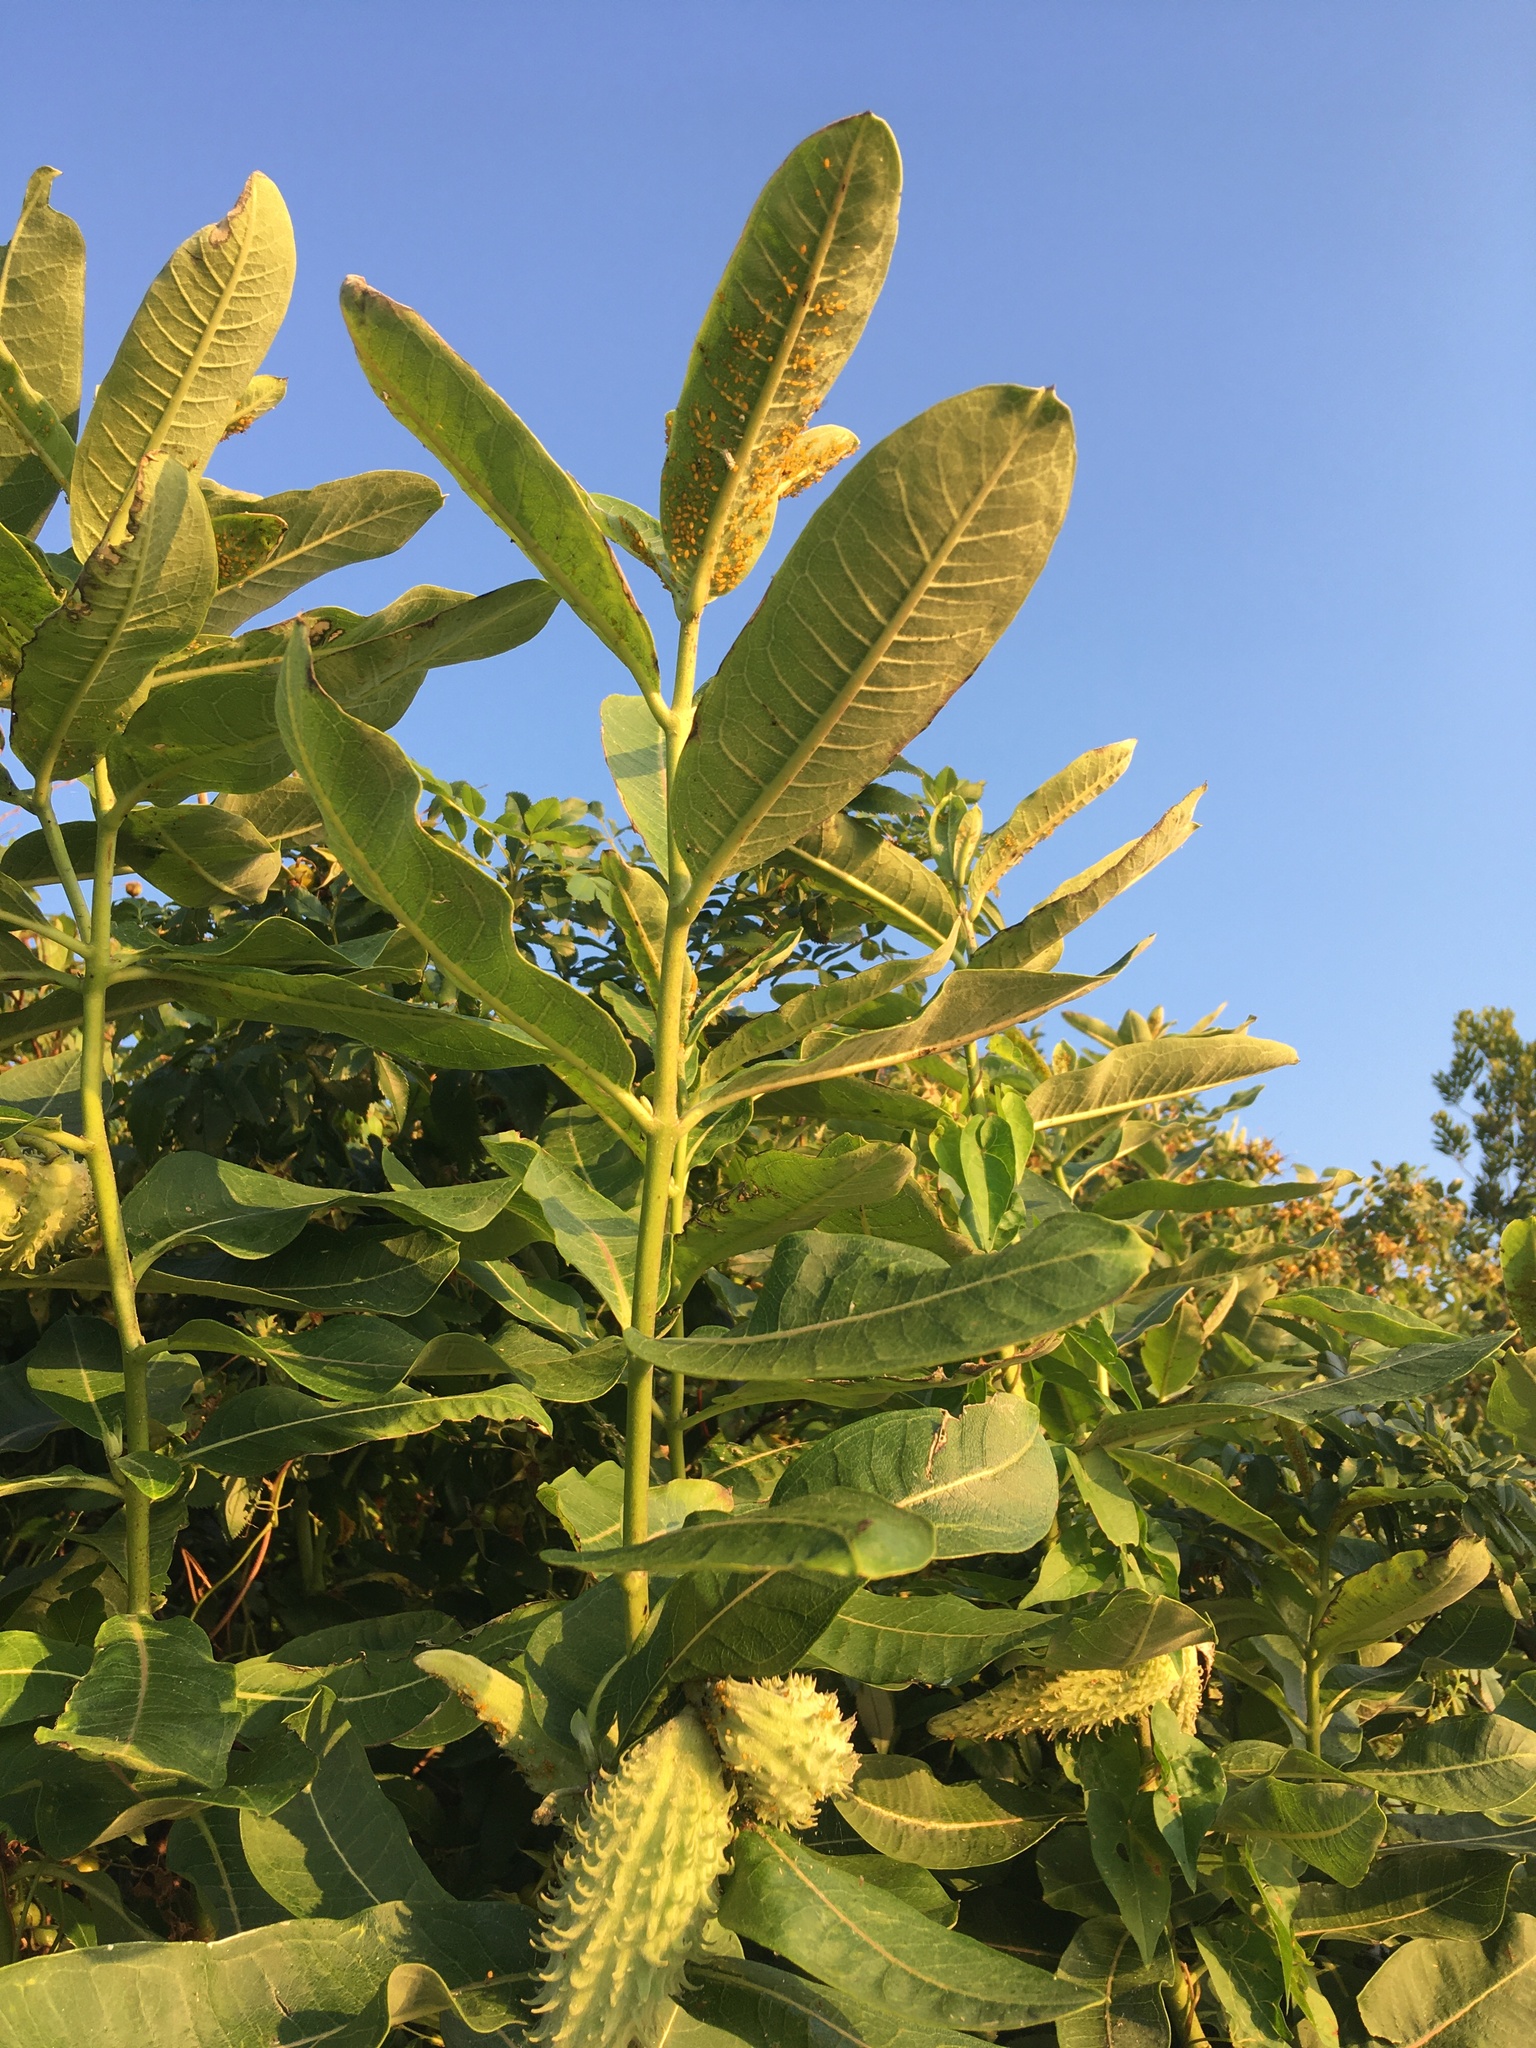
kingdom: Plantae
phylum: Tracheophyta
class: Magnoliopsida
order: Gentianales
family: Apocynaceae
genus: Asclepias
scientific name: Asclepias syriaca
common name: Common milkweed
